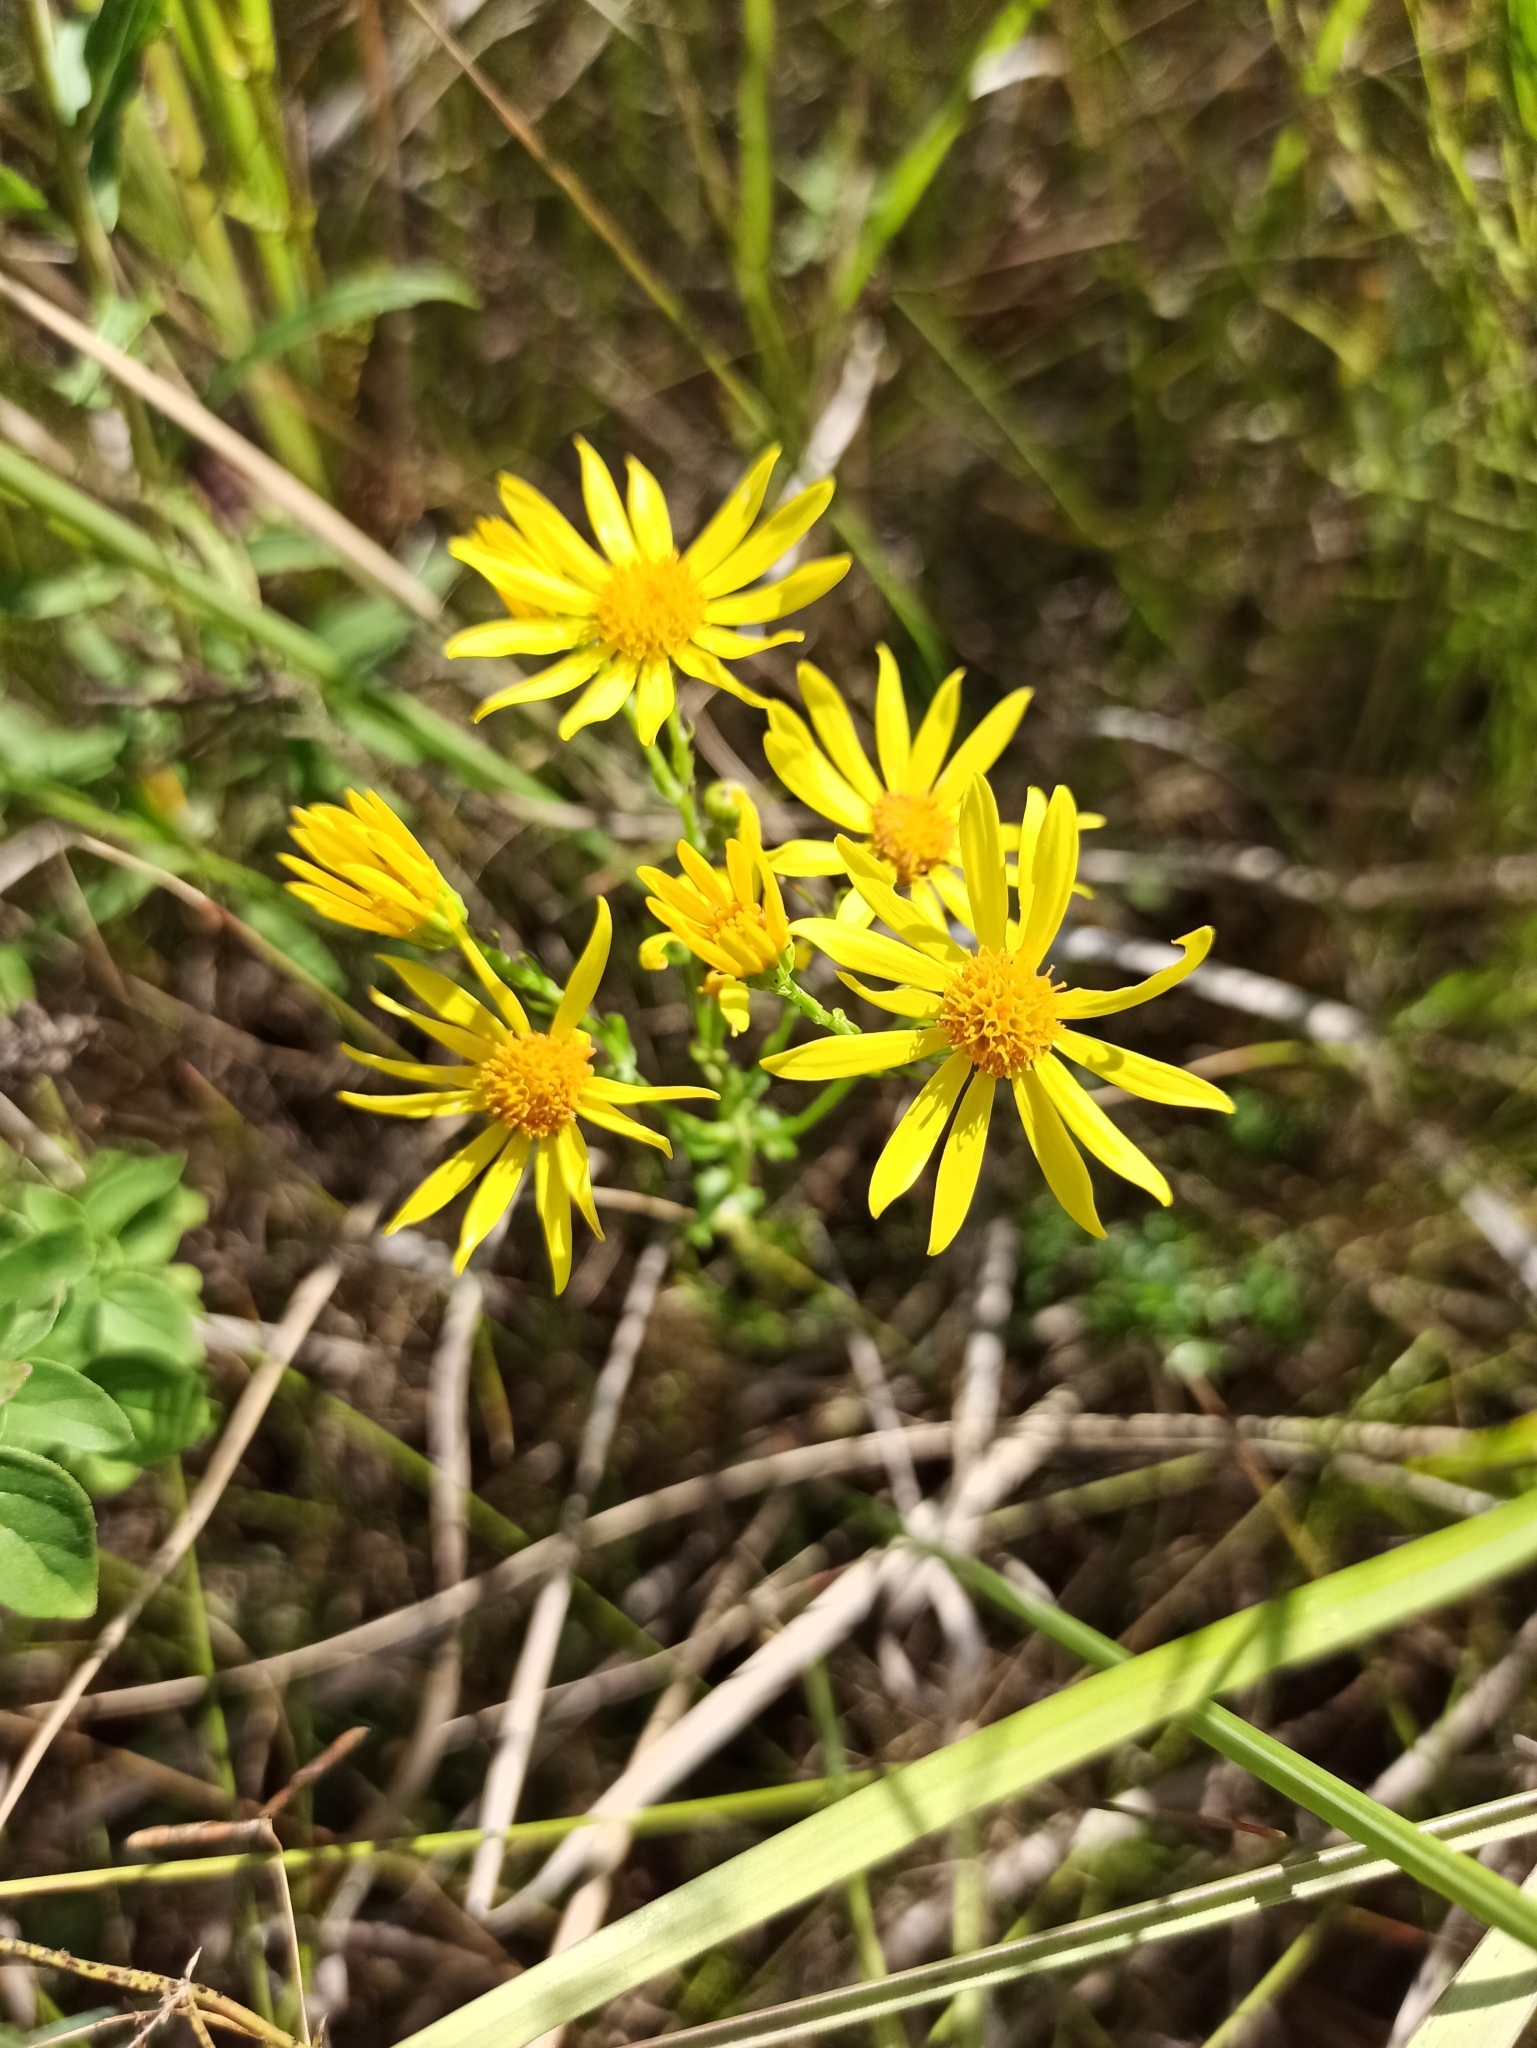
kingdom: Plantae
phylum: Tracheophyta
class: Magnoliopsida
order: Asterales
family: Asteraceae
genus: Jacobaea
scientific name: Jacobaea vulgaris
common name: Stinking willie
